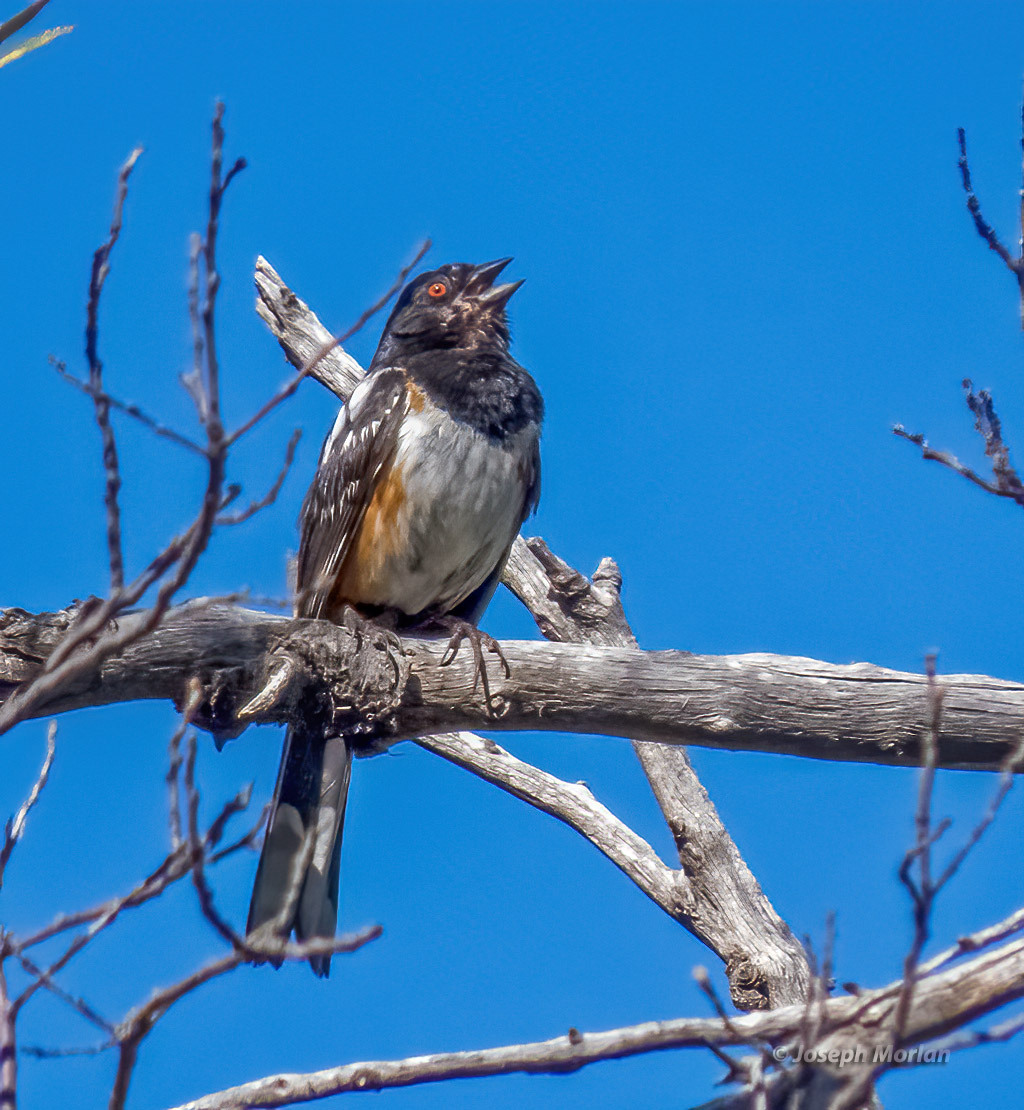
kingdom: Animalia
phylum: Chordata
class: Aves
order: Passeriformes
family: Passerellidae
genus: Pipilo
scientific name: Pipilo maculatus
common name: Spotted towhee
